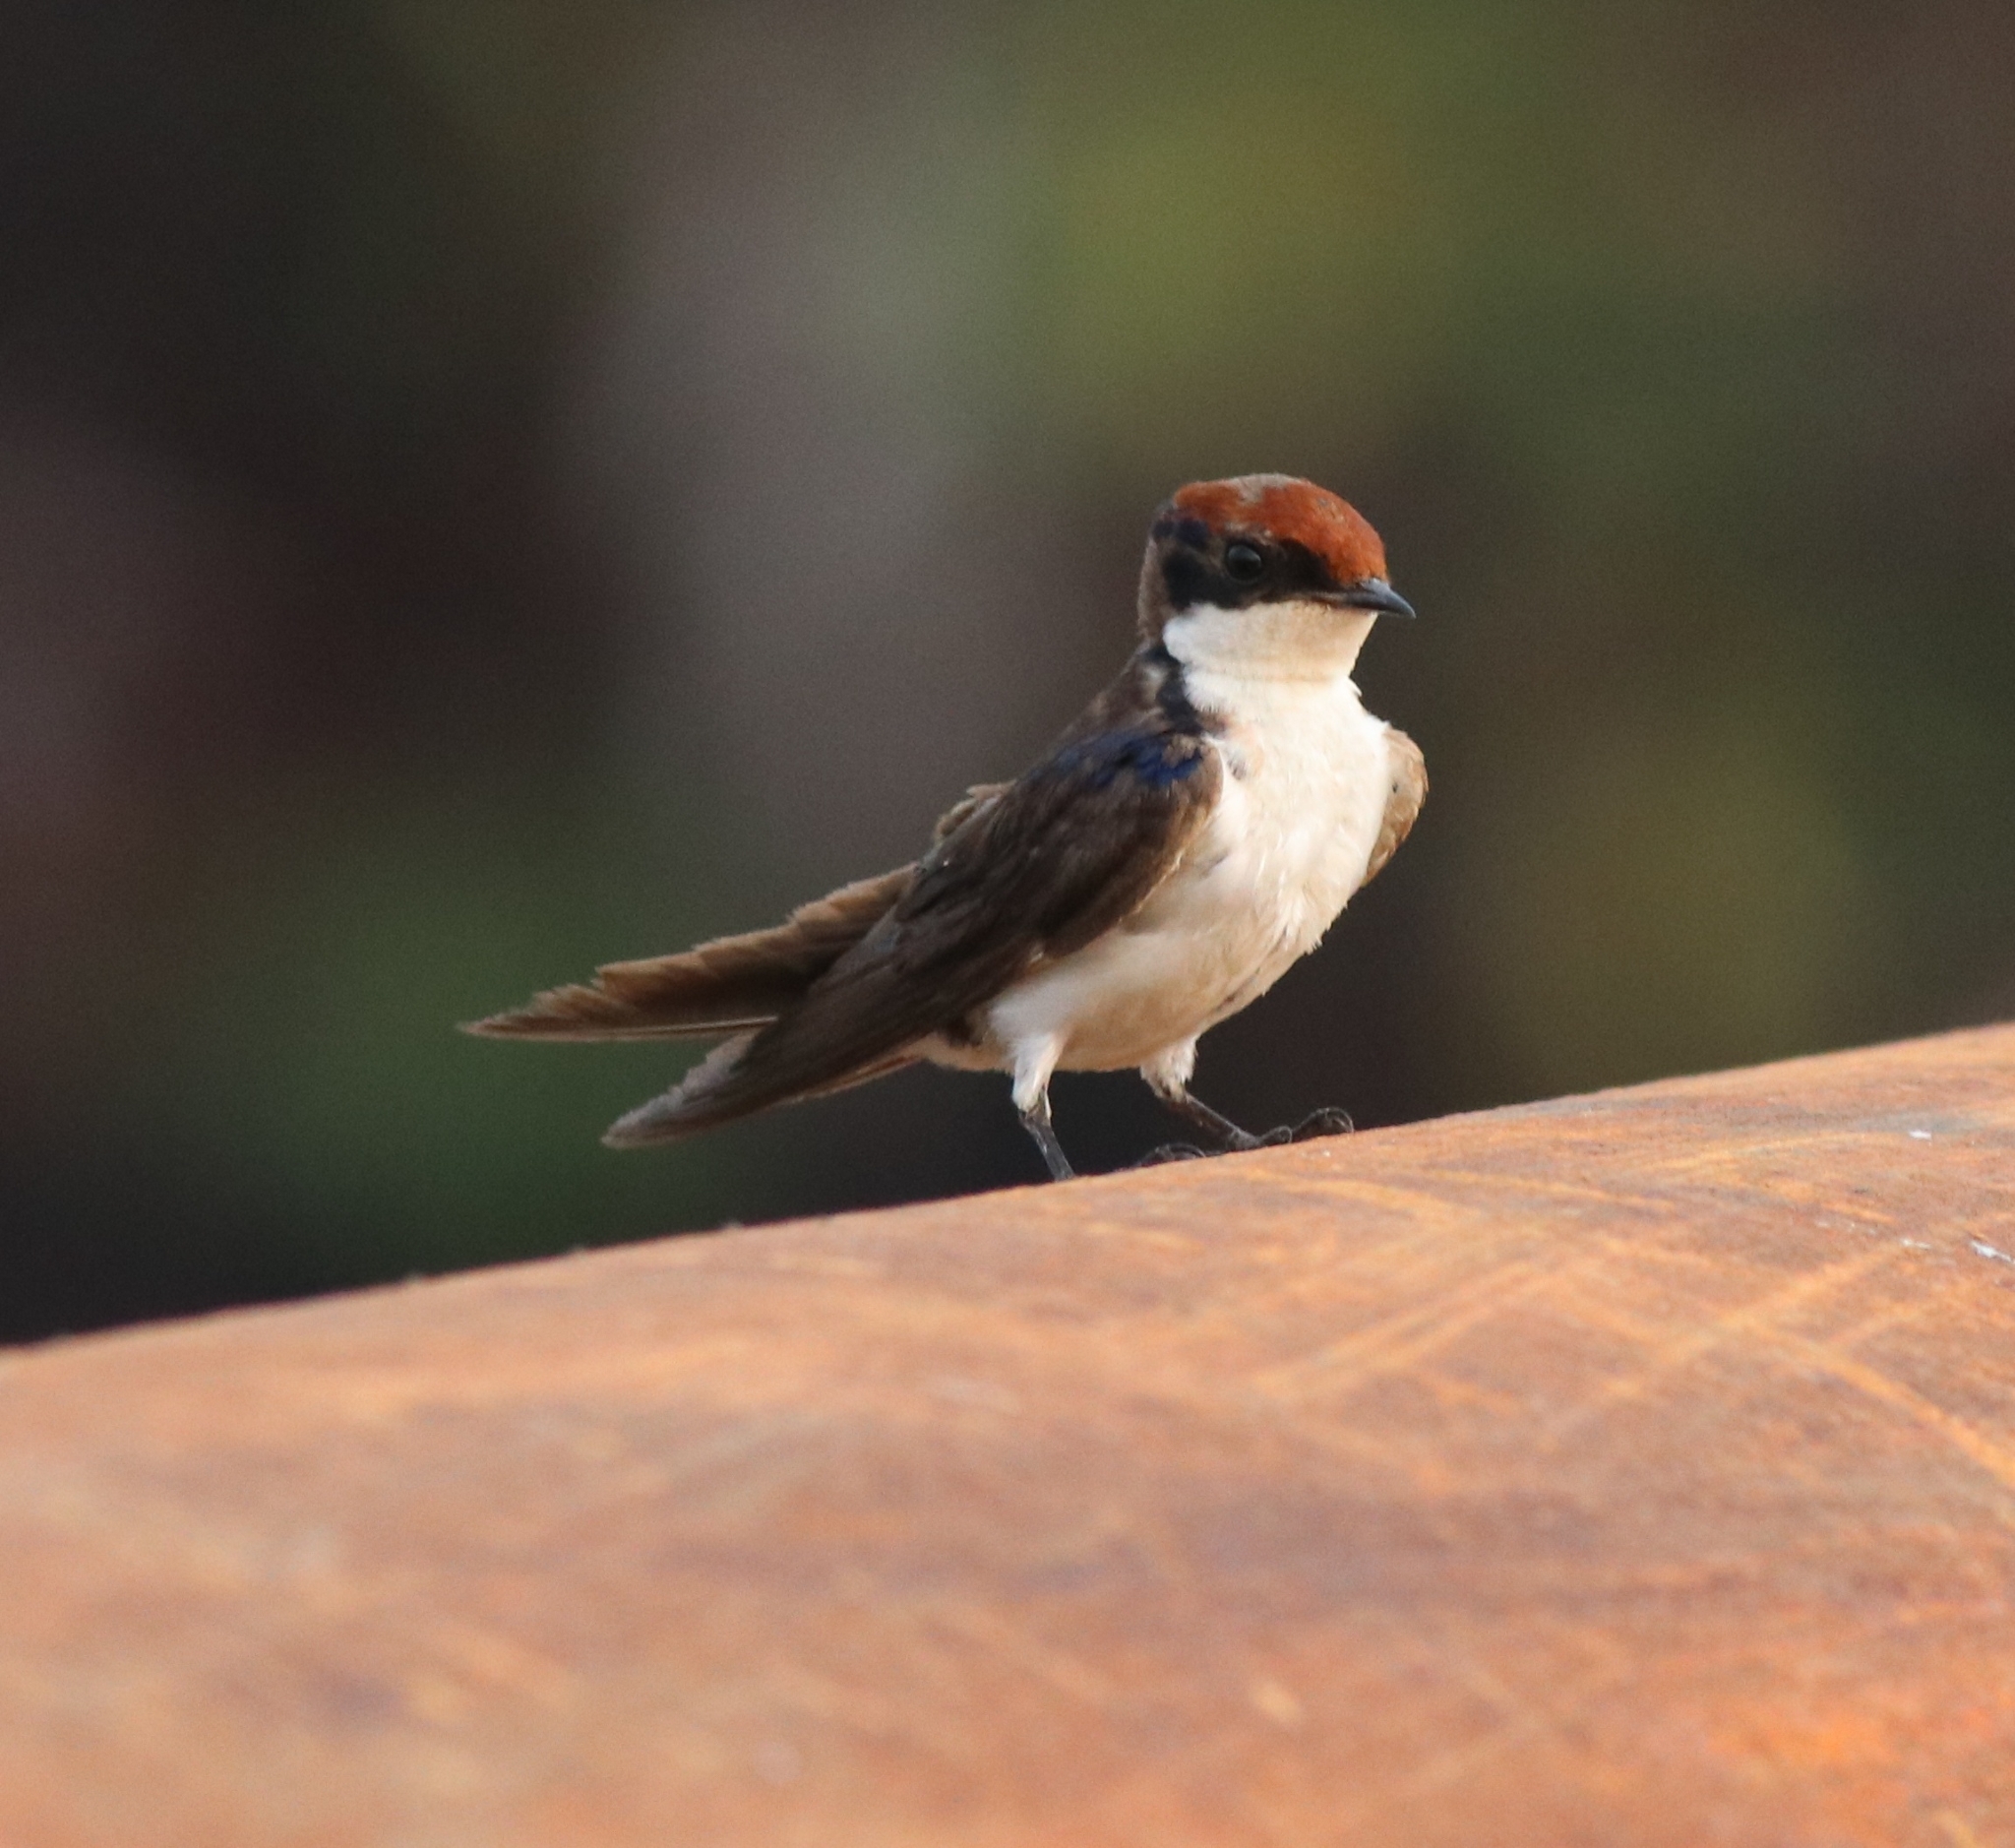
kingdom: Animalia
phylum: Chordata
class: Aves
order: Passeriformes
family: Hirundinidae
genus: Hirundo
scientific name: Hirundo smithii
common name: Wire-tailed swallow
